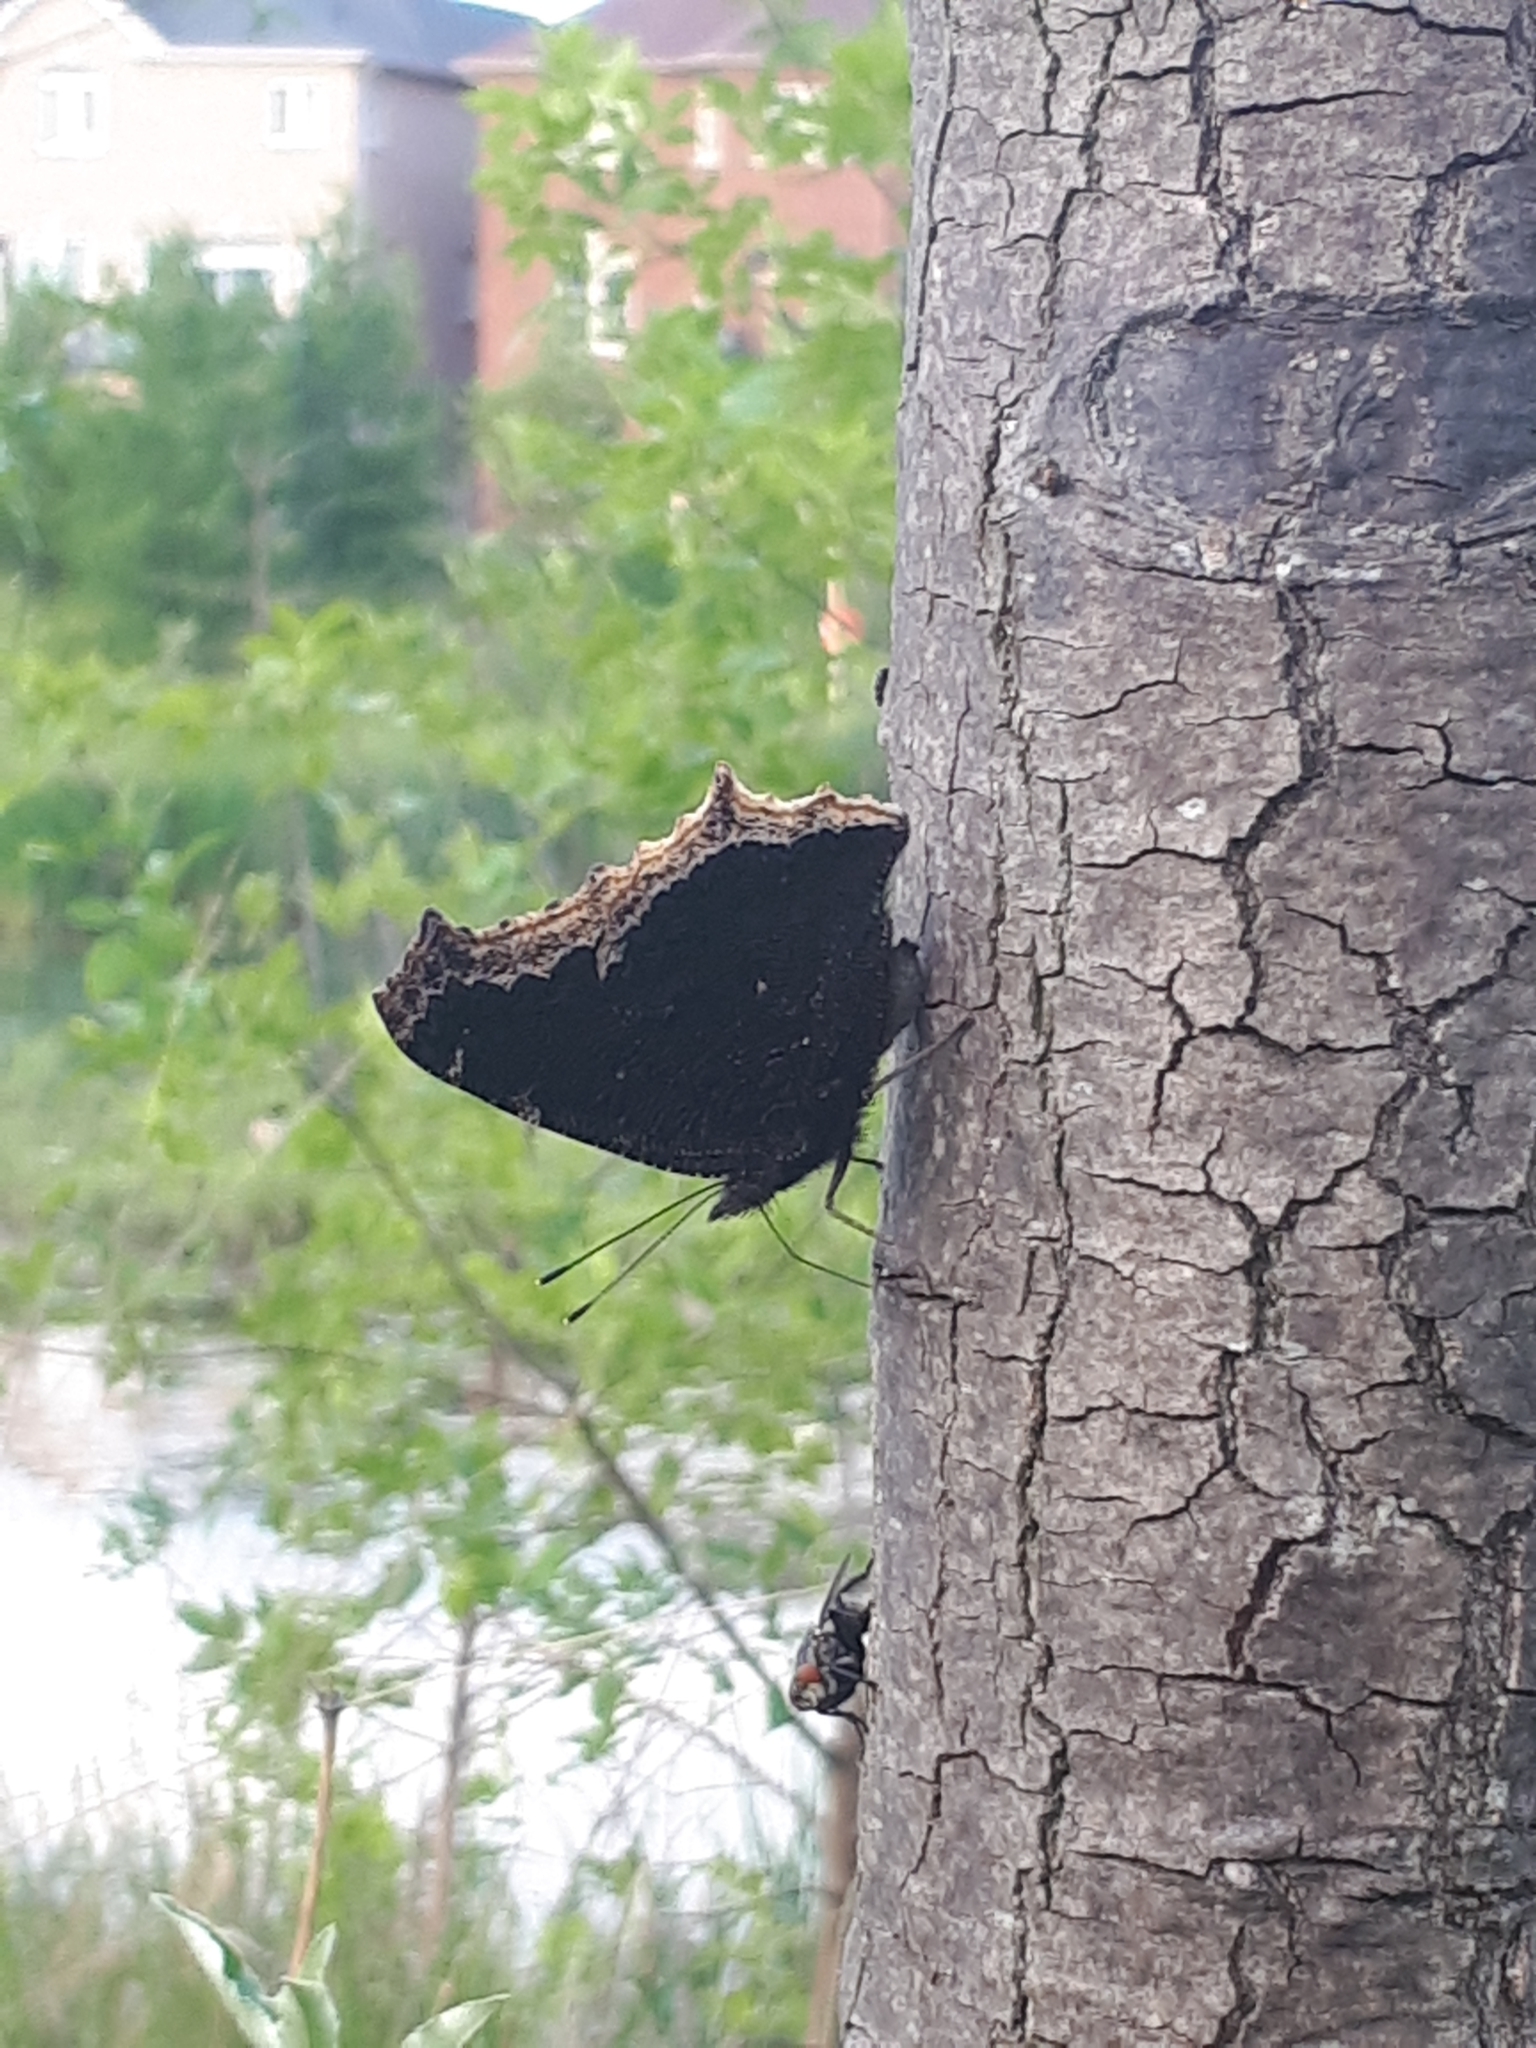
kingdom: Animalia
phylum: Arthropoda
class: Insecta
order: Lepidoptera
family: Nymphalidae
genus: Nymphalis
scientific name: Nymphalis antiopa
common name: Camberwell beauty
